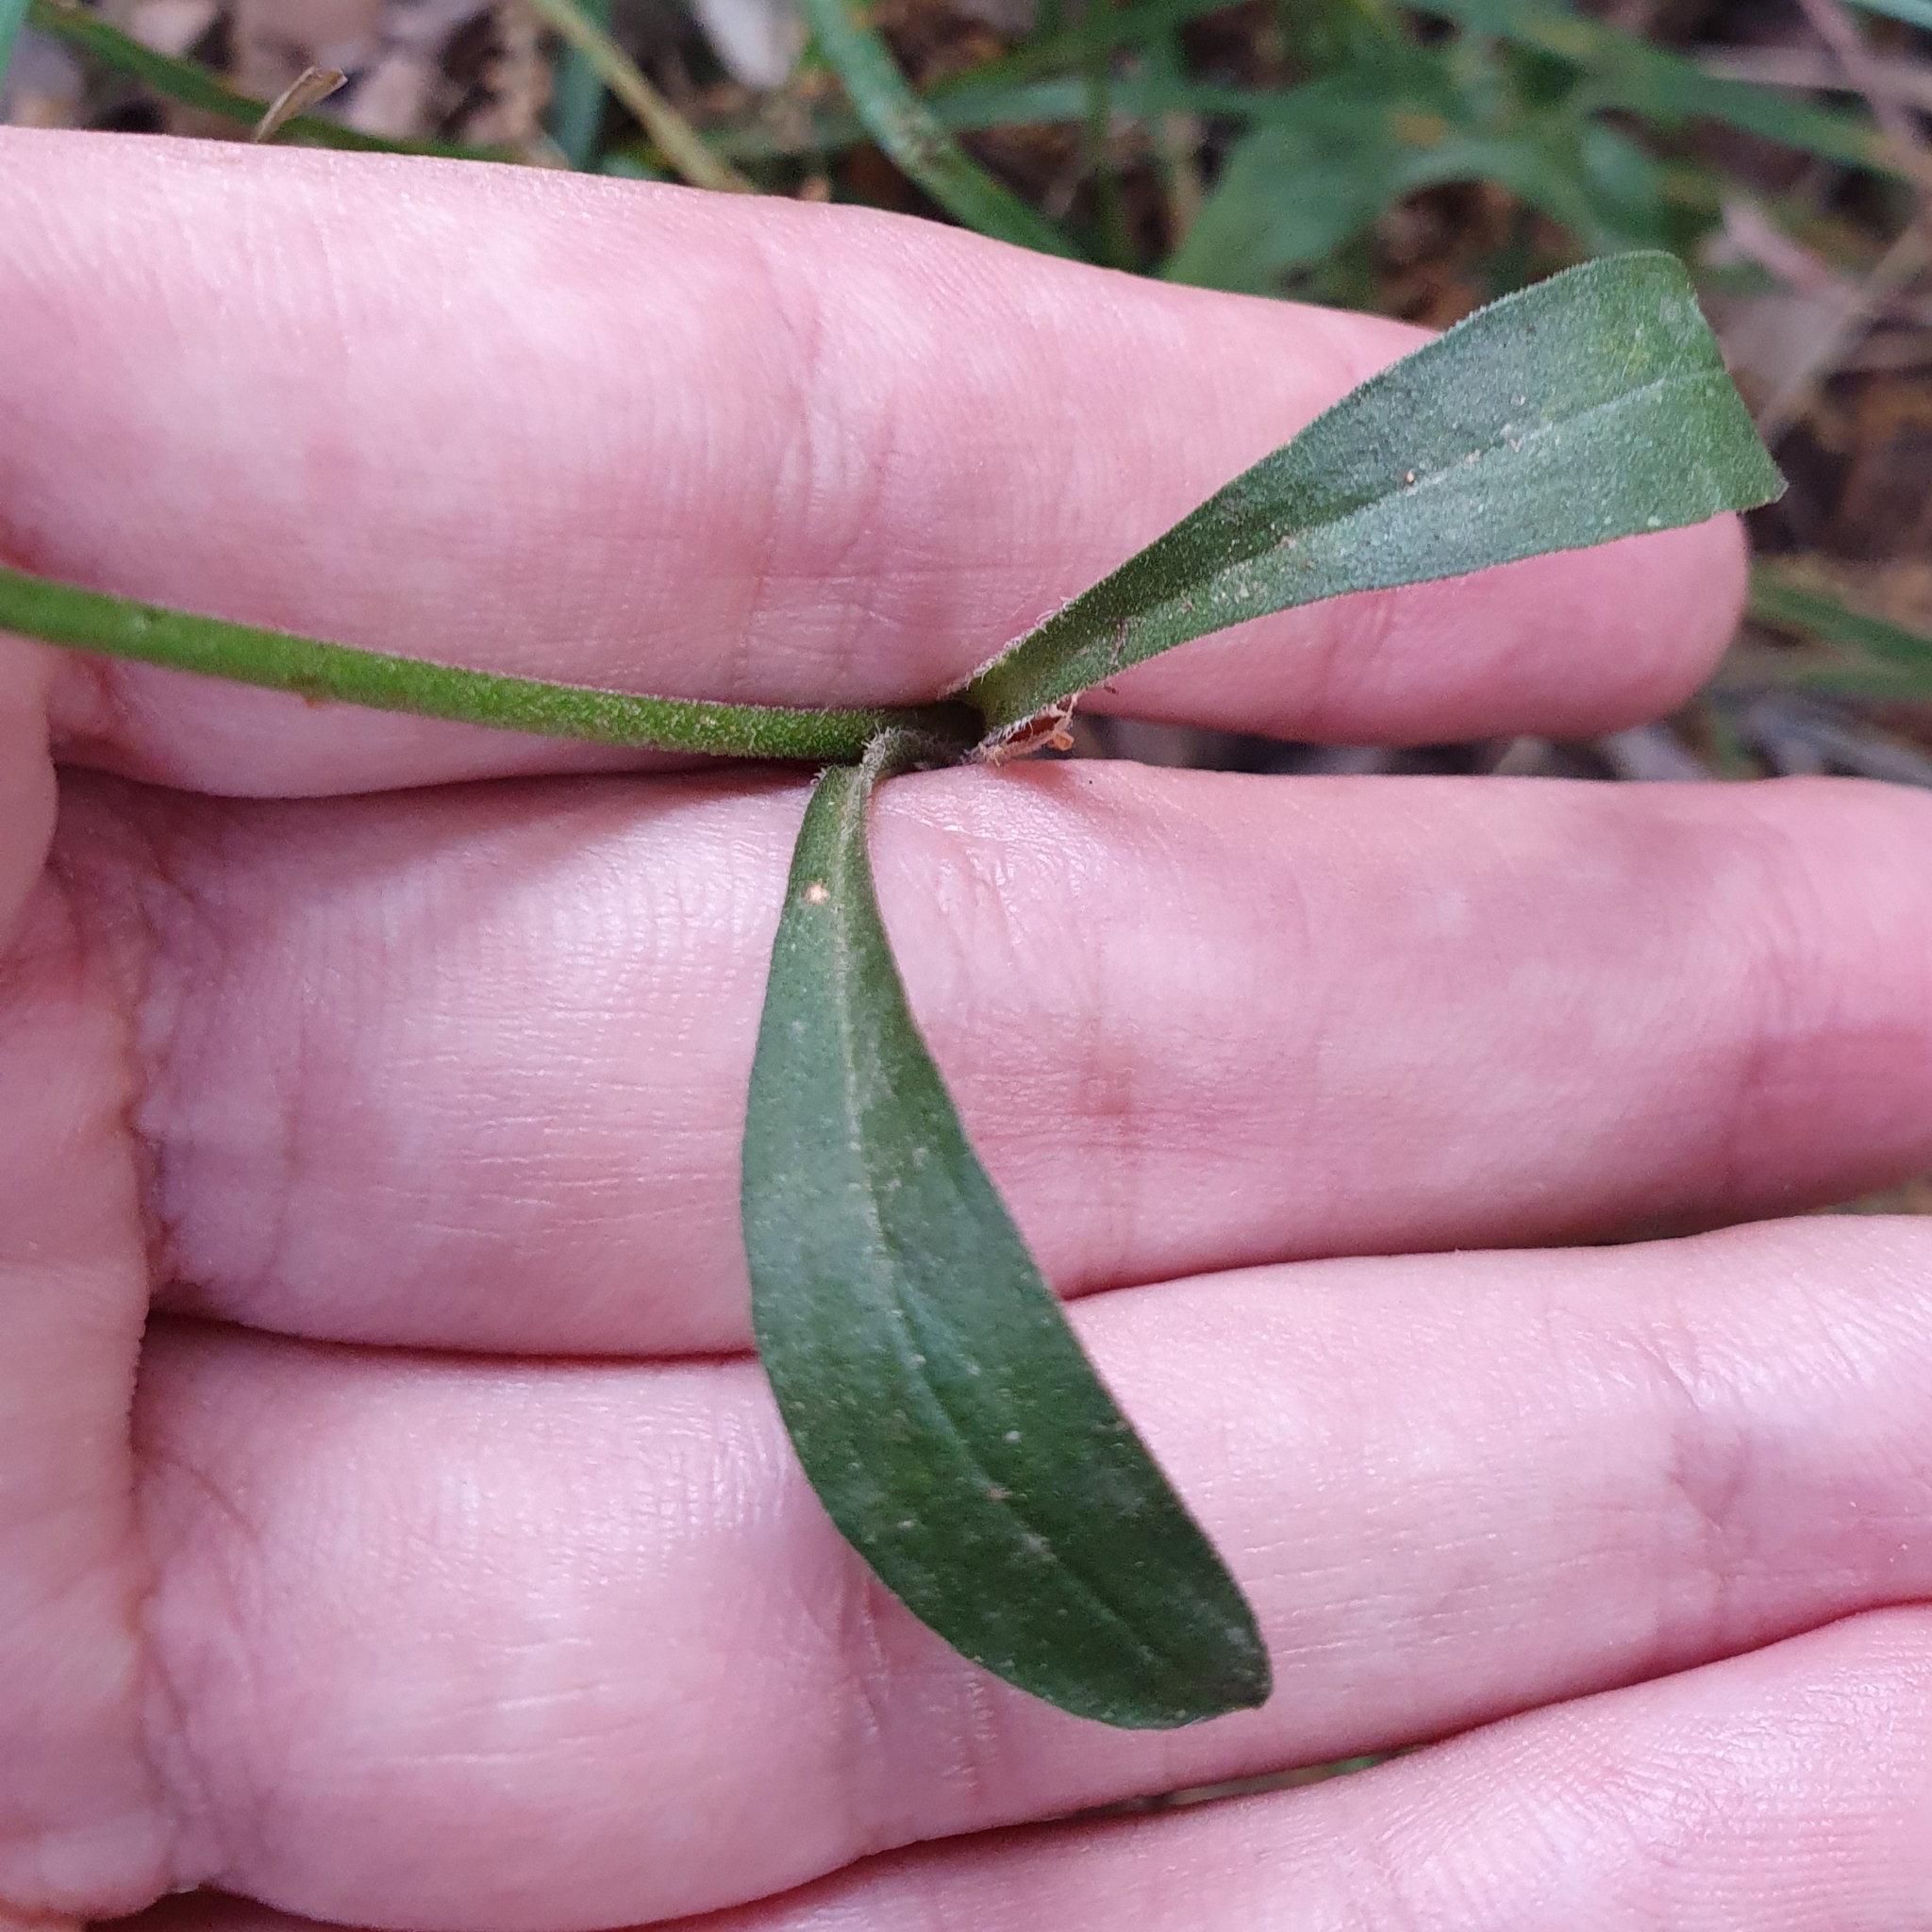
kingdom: Plantae
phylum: Tracheophyta
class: Magnoliopsida
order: Caryophyllales
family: Caryophyllaceae
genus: Silene
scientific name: Silene patula
